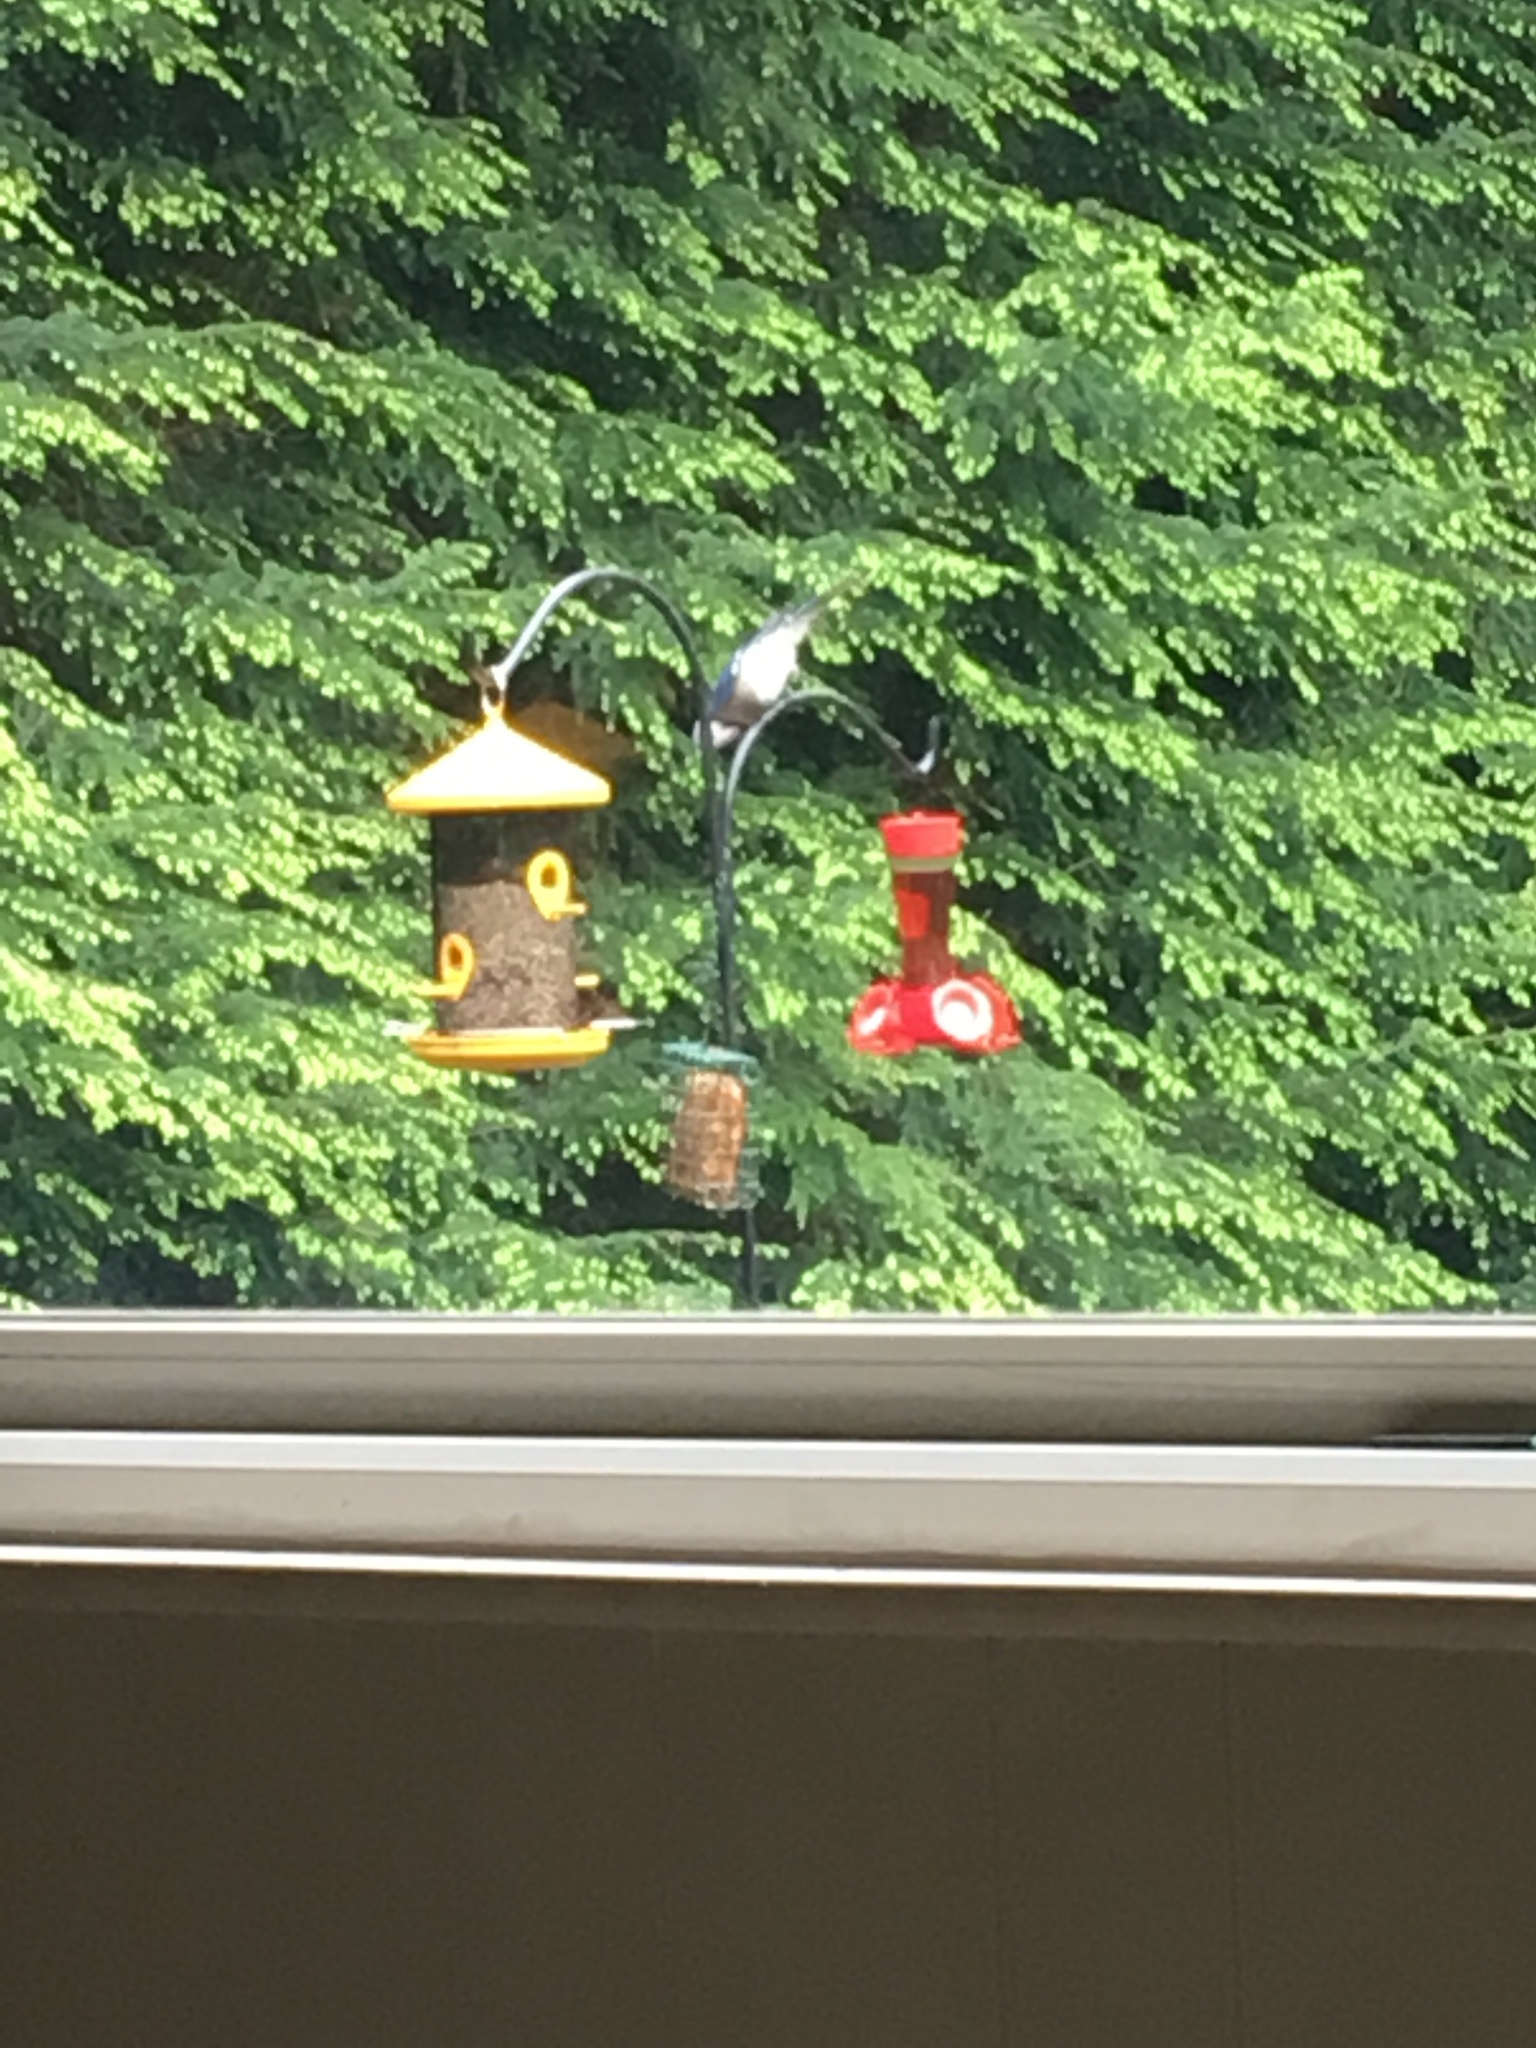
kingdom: Animalia
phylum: Chordata
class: Aves
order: Passeriformes
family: Corvidae
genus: Cyanocitta
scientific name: Cyanocitta cristata
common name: Blue jay
